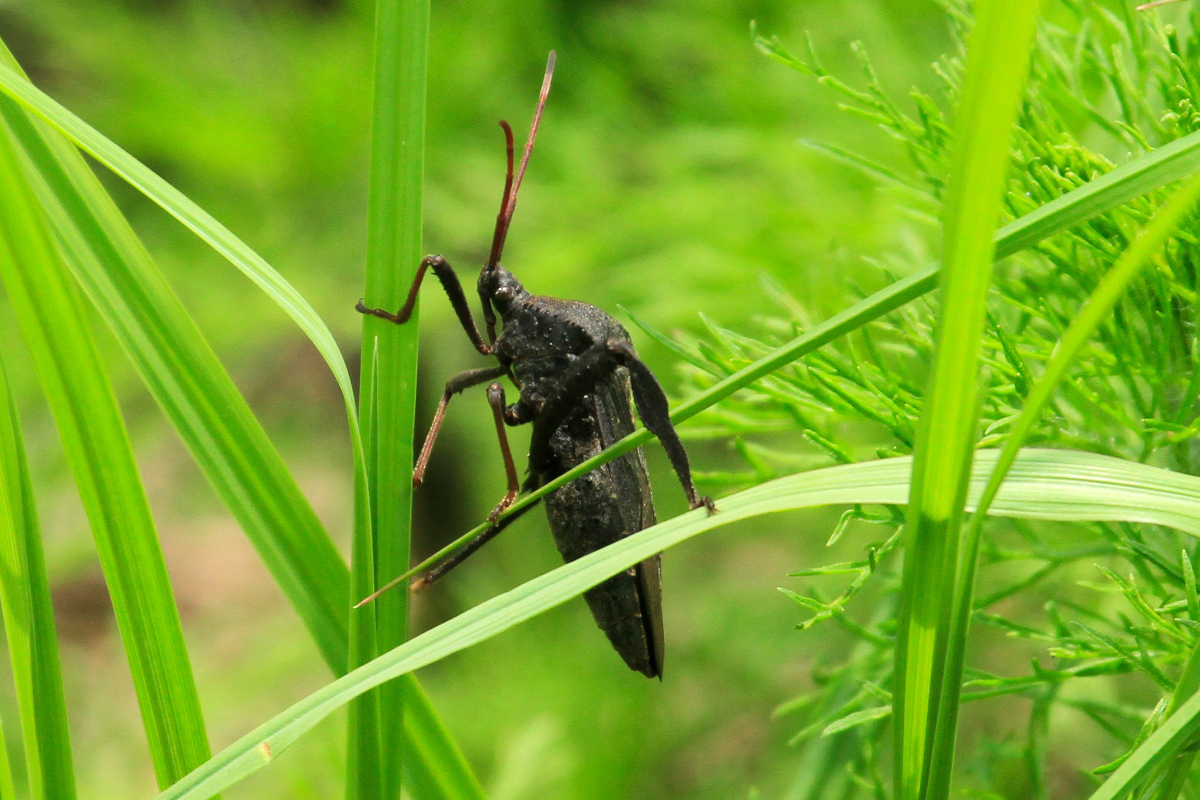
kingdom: Animalia
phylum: Arthropoda
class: Insecta
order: Hemiptera
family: Coreidae
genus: Acanthocephala
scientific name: Acanthocephala femorata
